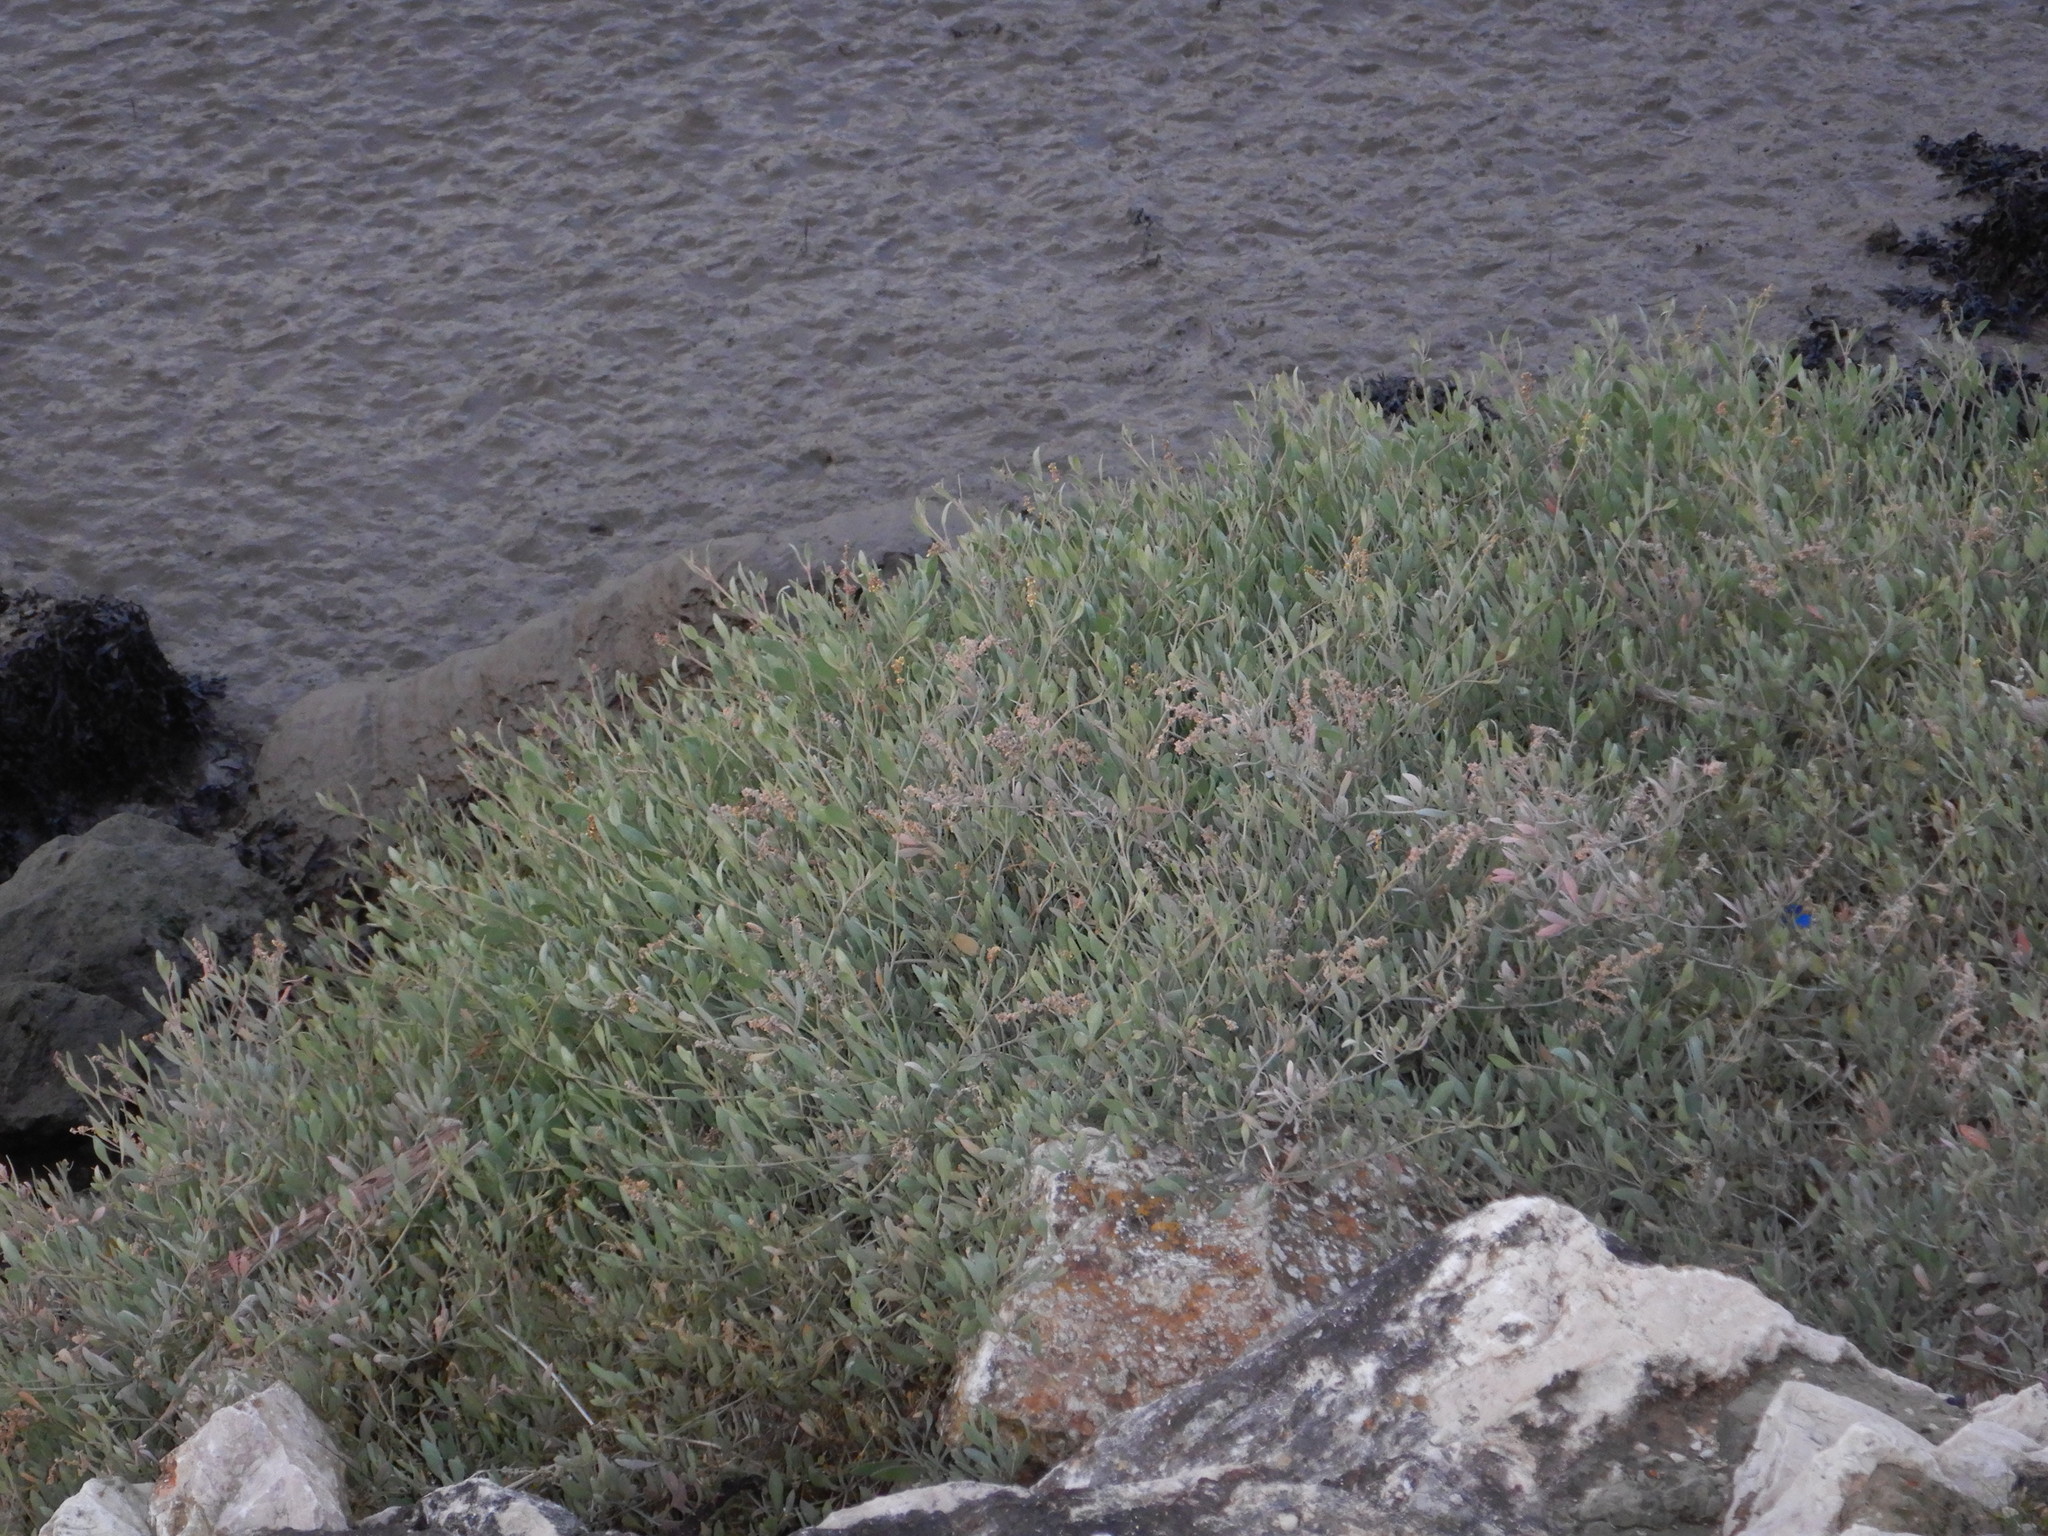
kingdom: Plantae
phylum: Tracheophyta
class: Magnoliopsida
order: Caryophyllales
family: Amaranthaceae
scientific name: Amaranthaceae
